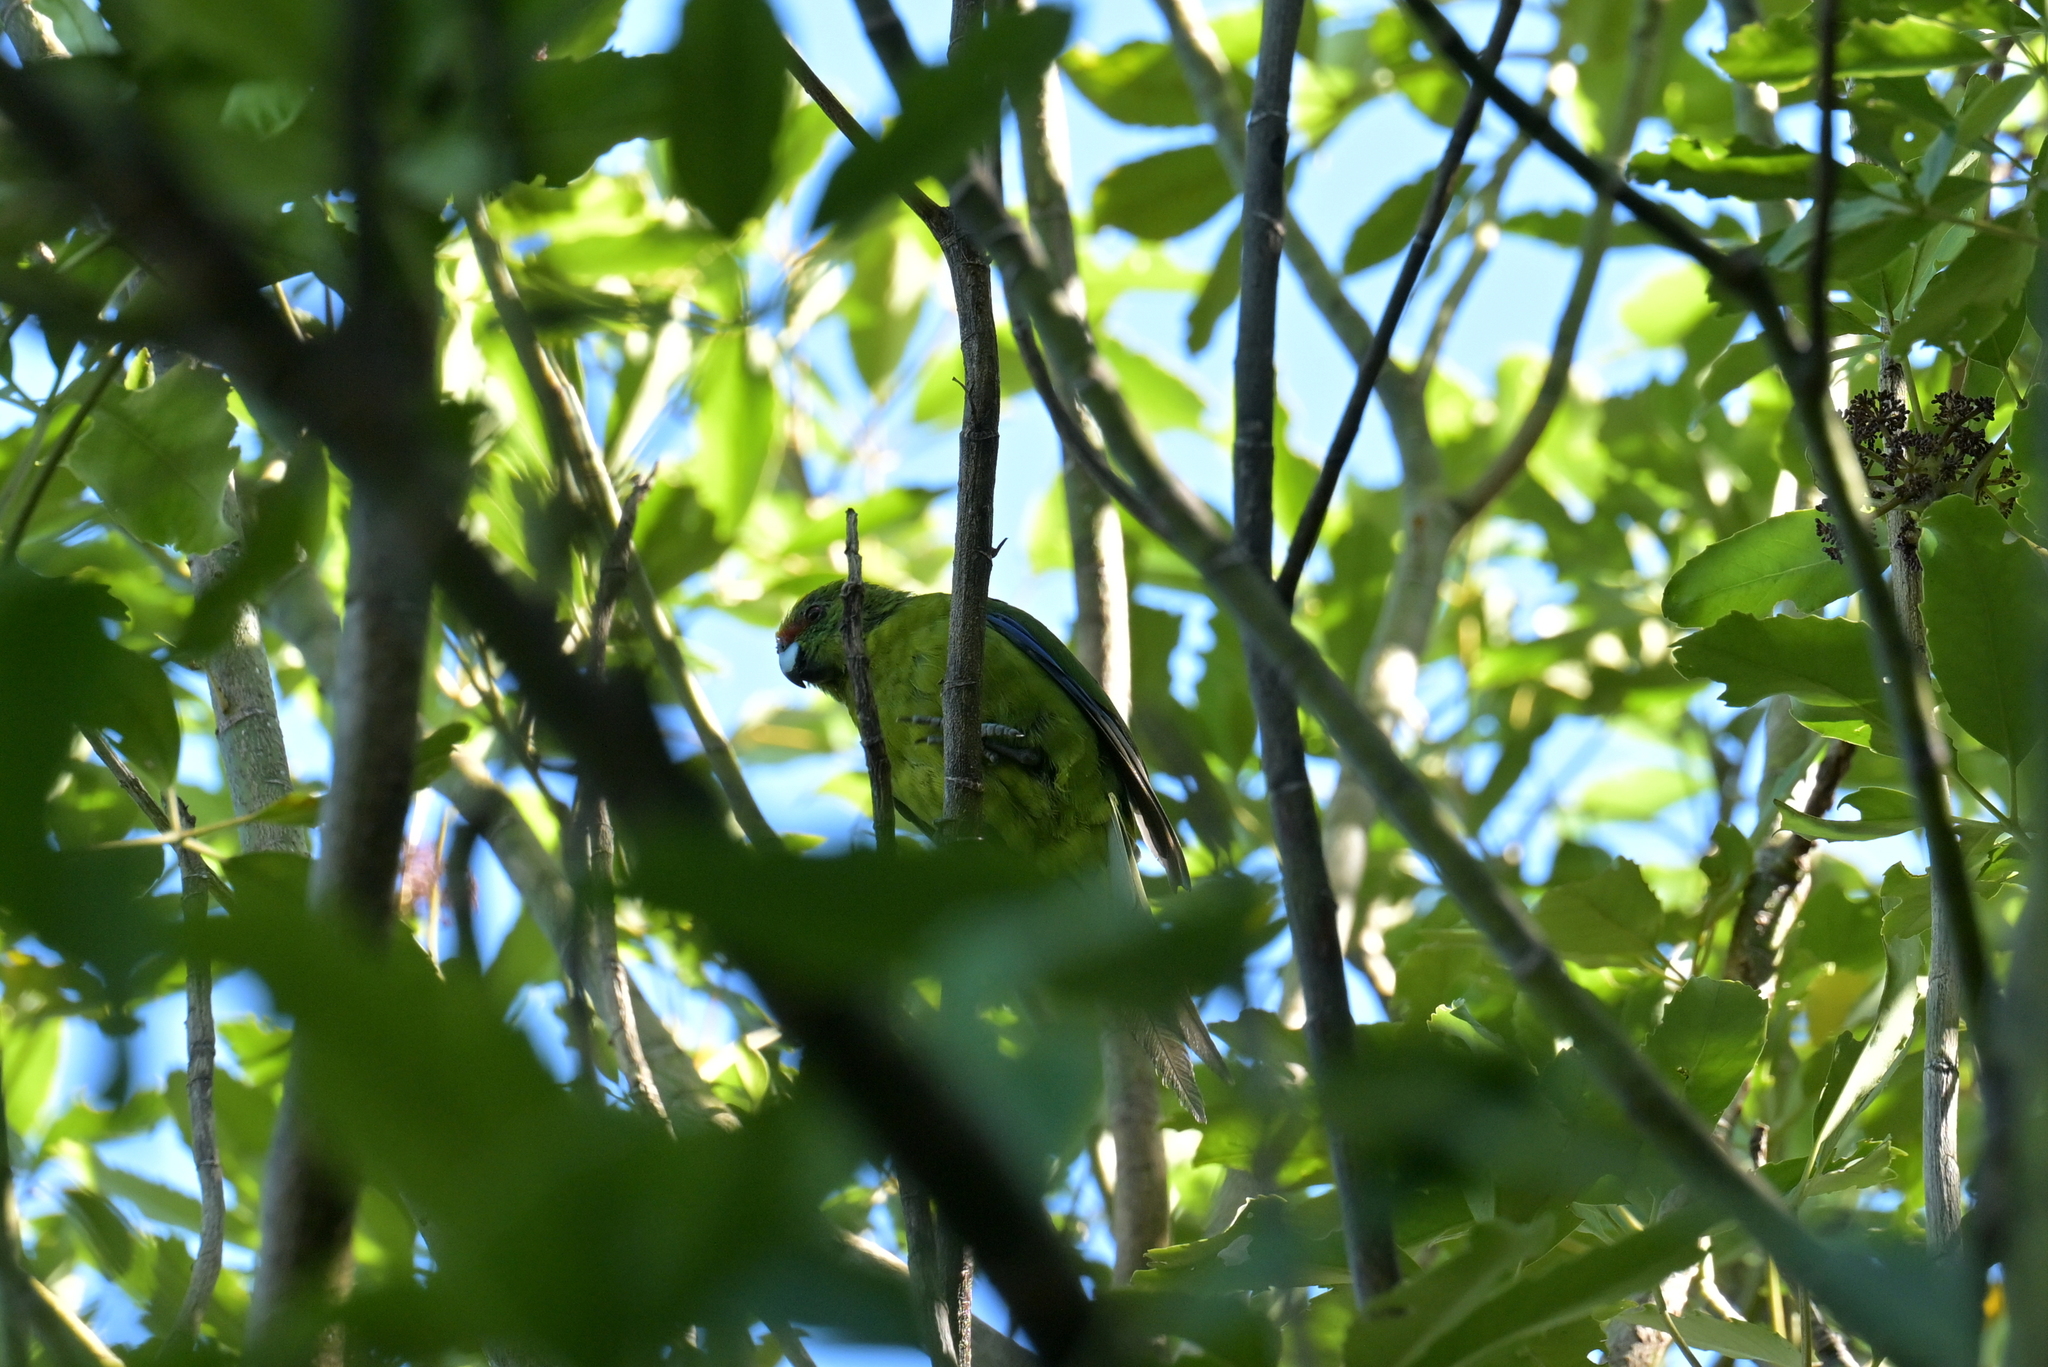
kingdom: Animalia
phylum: Chordata
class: Aves
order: Psittaciformes
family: Psittacidae
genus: Cyanoramphus
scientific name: Cyanoramphus auriceps
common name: Yellow-crowned parakeet
